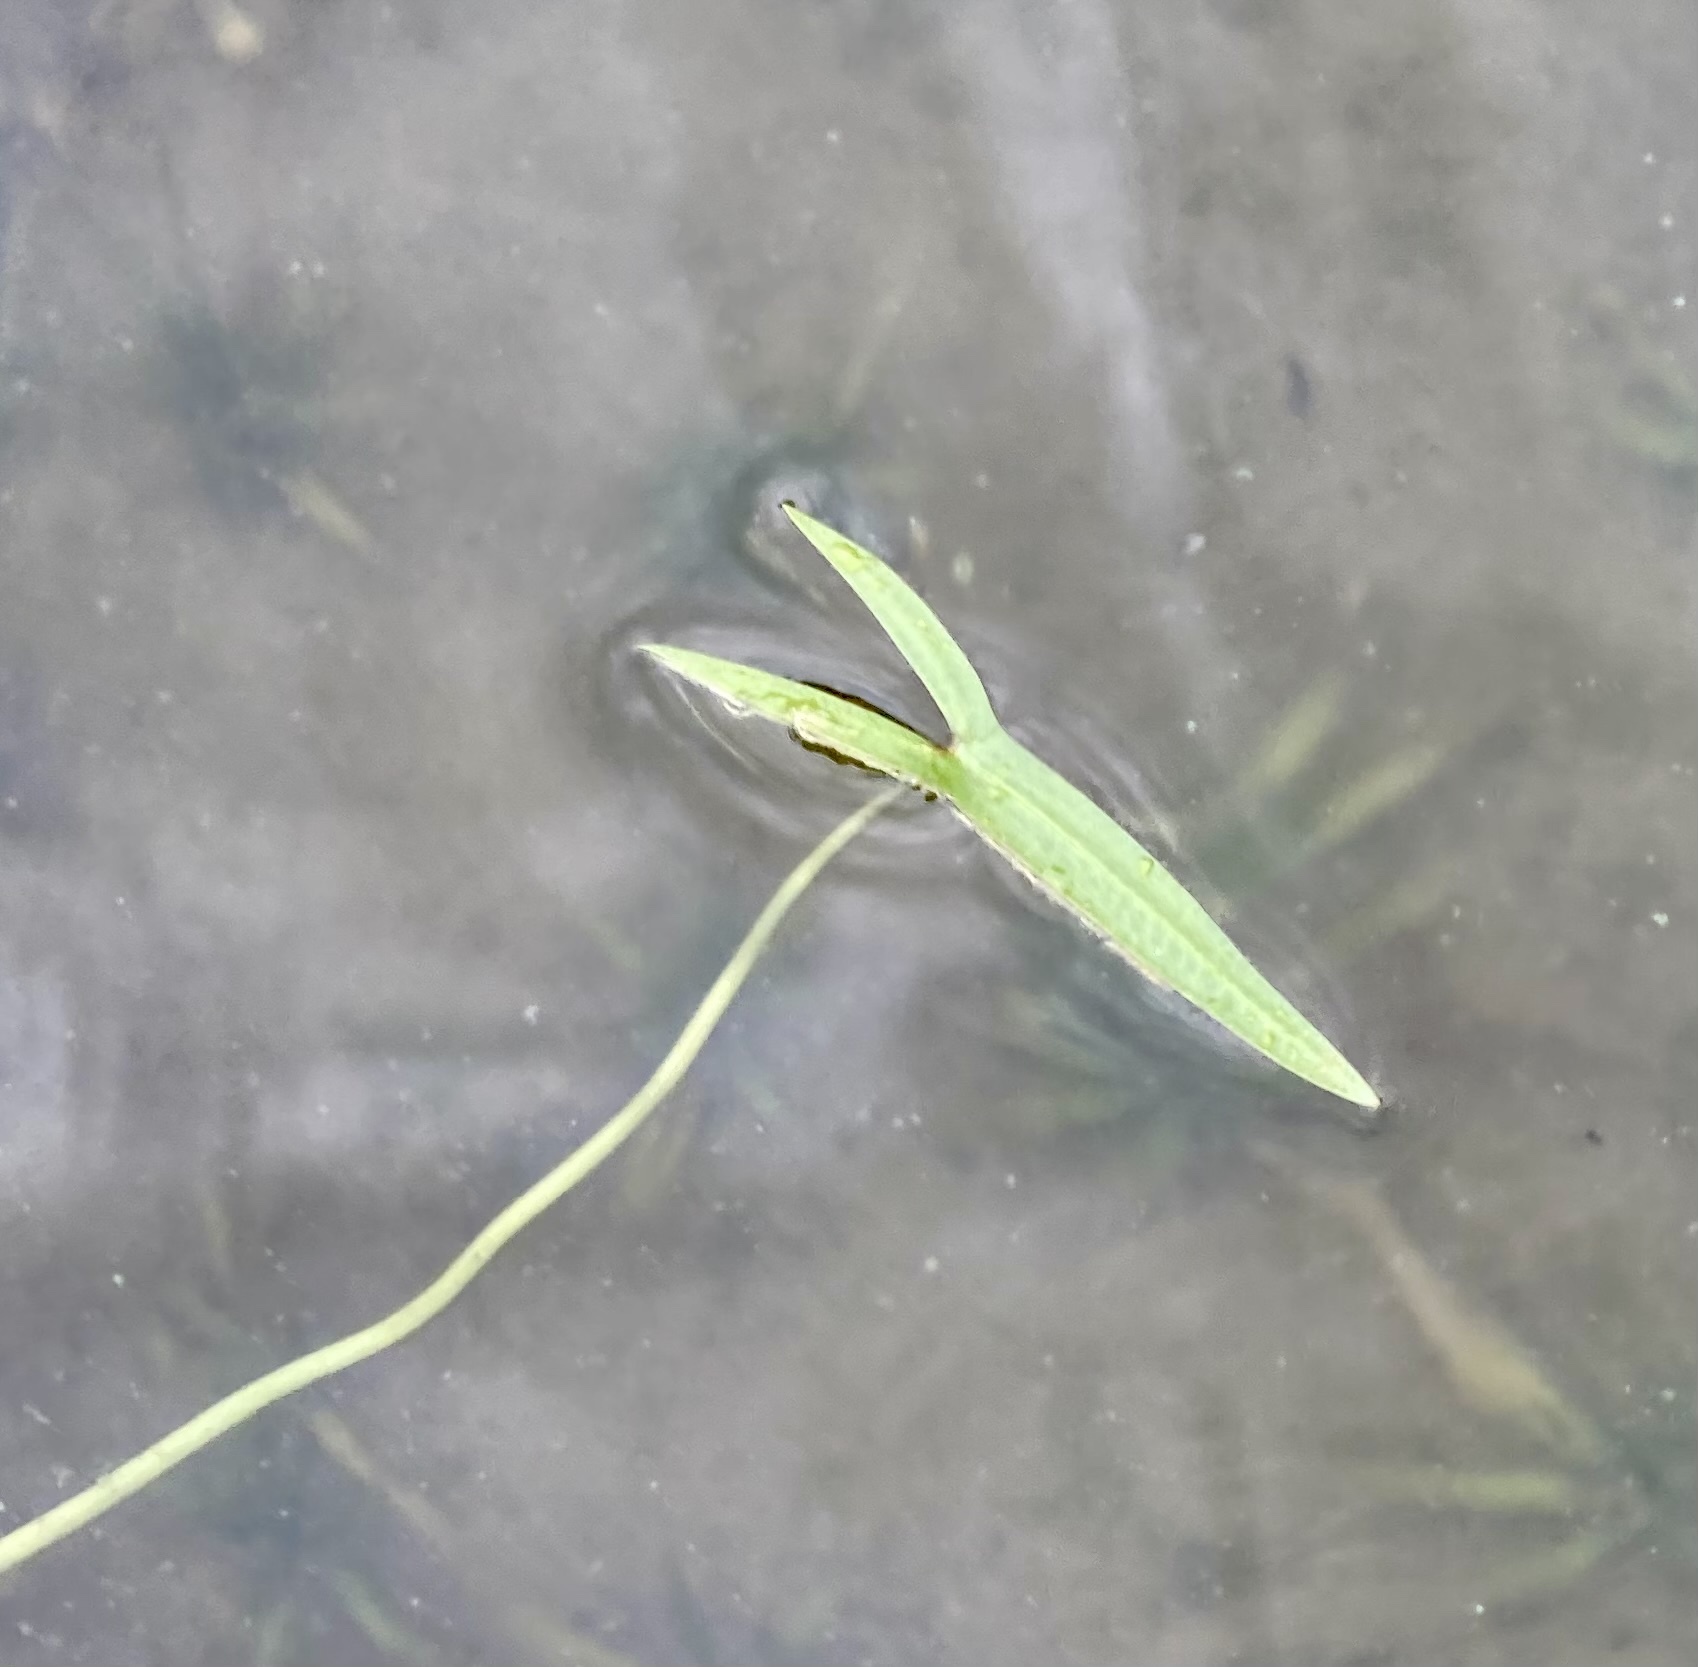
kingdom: Plantae
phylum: Tracheophyta
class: Liliopsida
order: Alismatales
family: Alismataceae
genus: Sagittaria
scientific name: Sagittaria cuneata
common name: Northern arrowhead
